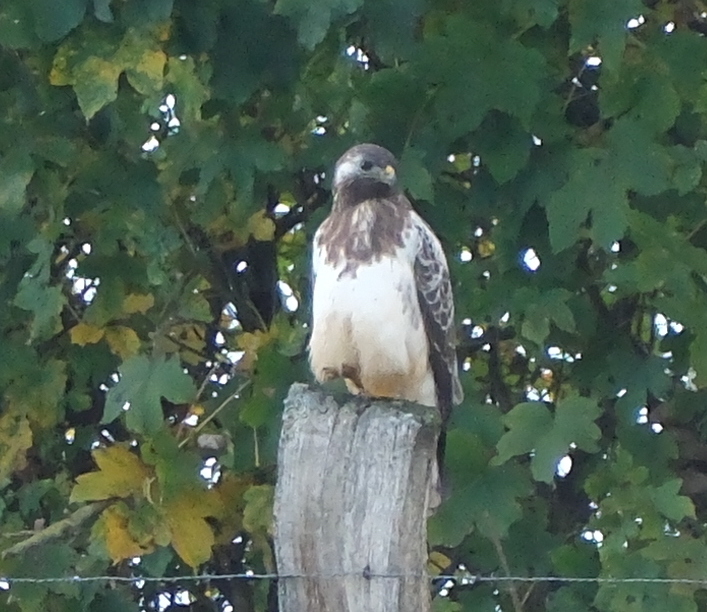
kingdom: Animalia
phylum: Chordata
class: Aves
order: Accipitriformes
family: Accipitridae
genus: Buteo
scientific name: Buteo buteo
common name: Common buzzard
